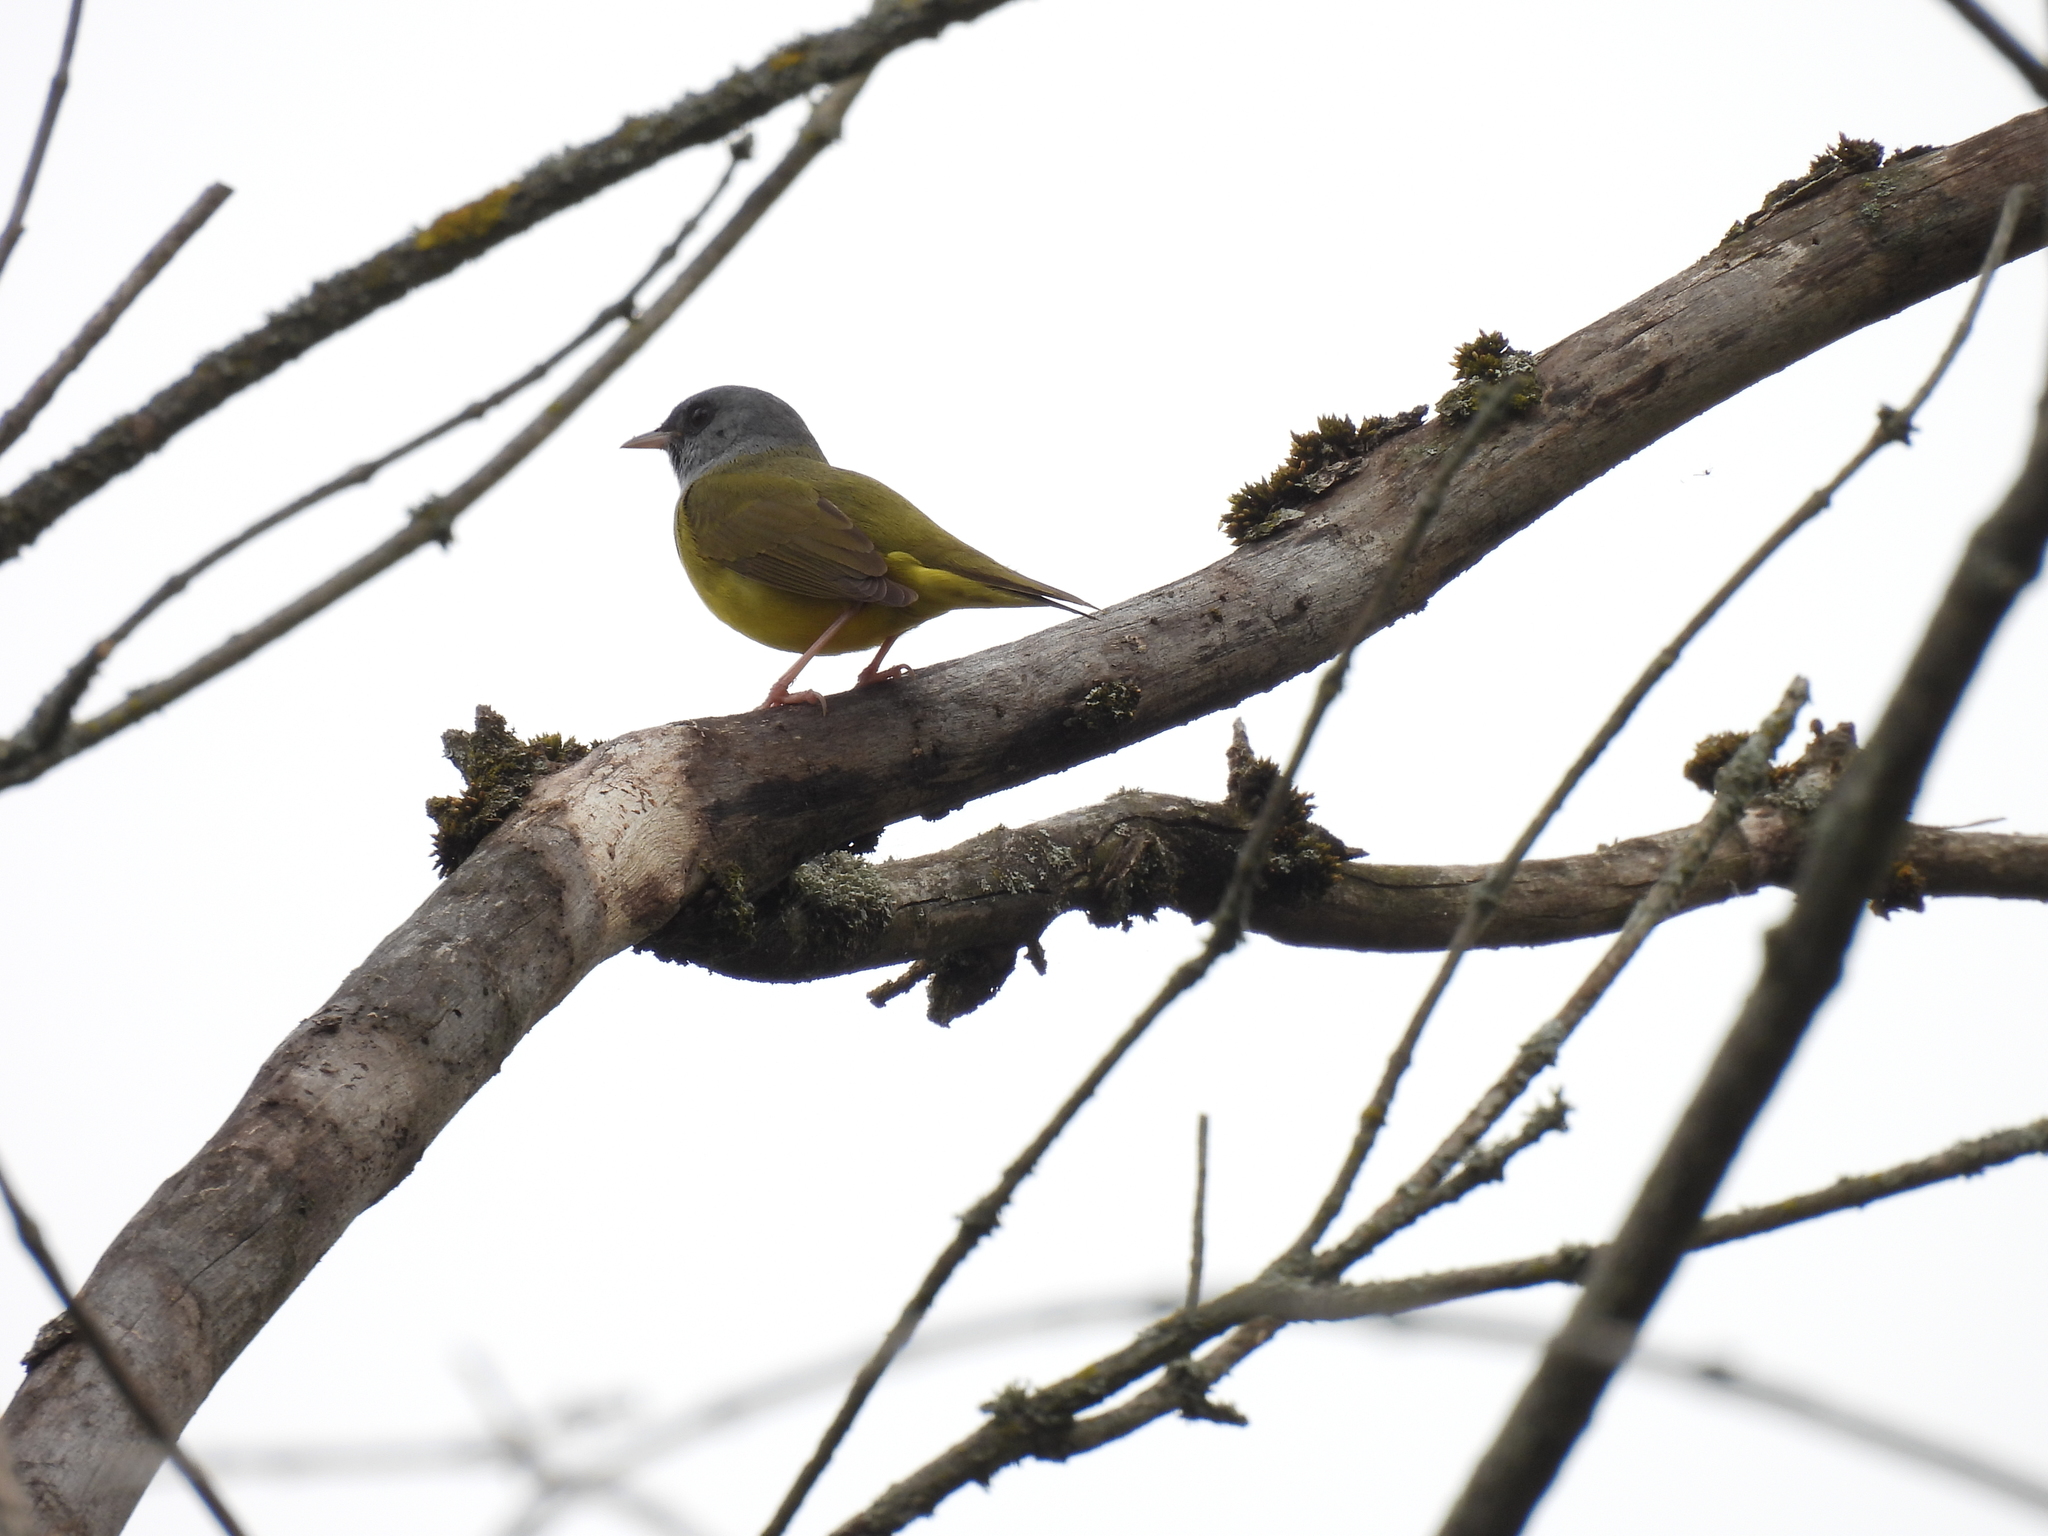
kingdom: Animalia
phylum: Chordata
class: Aves
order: Passeriformes
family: Parulidae
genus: Geothlypis
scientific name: Geothlypis philadelphia
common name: Mourning warbler
